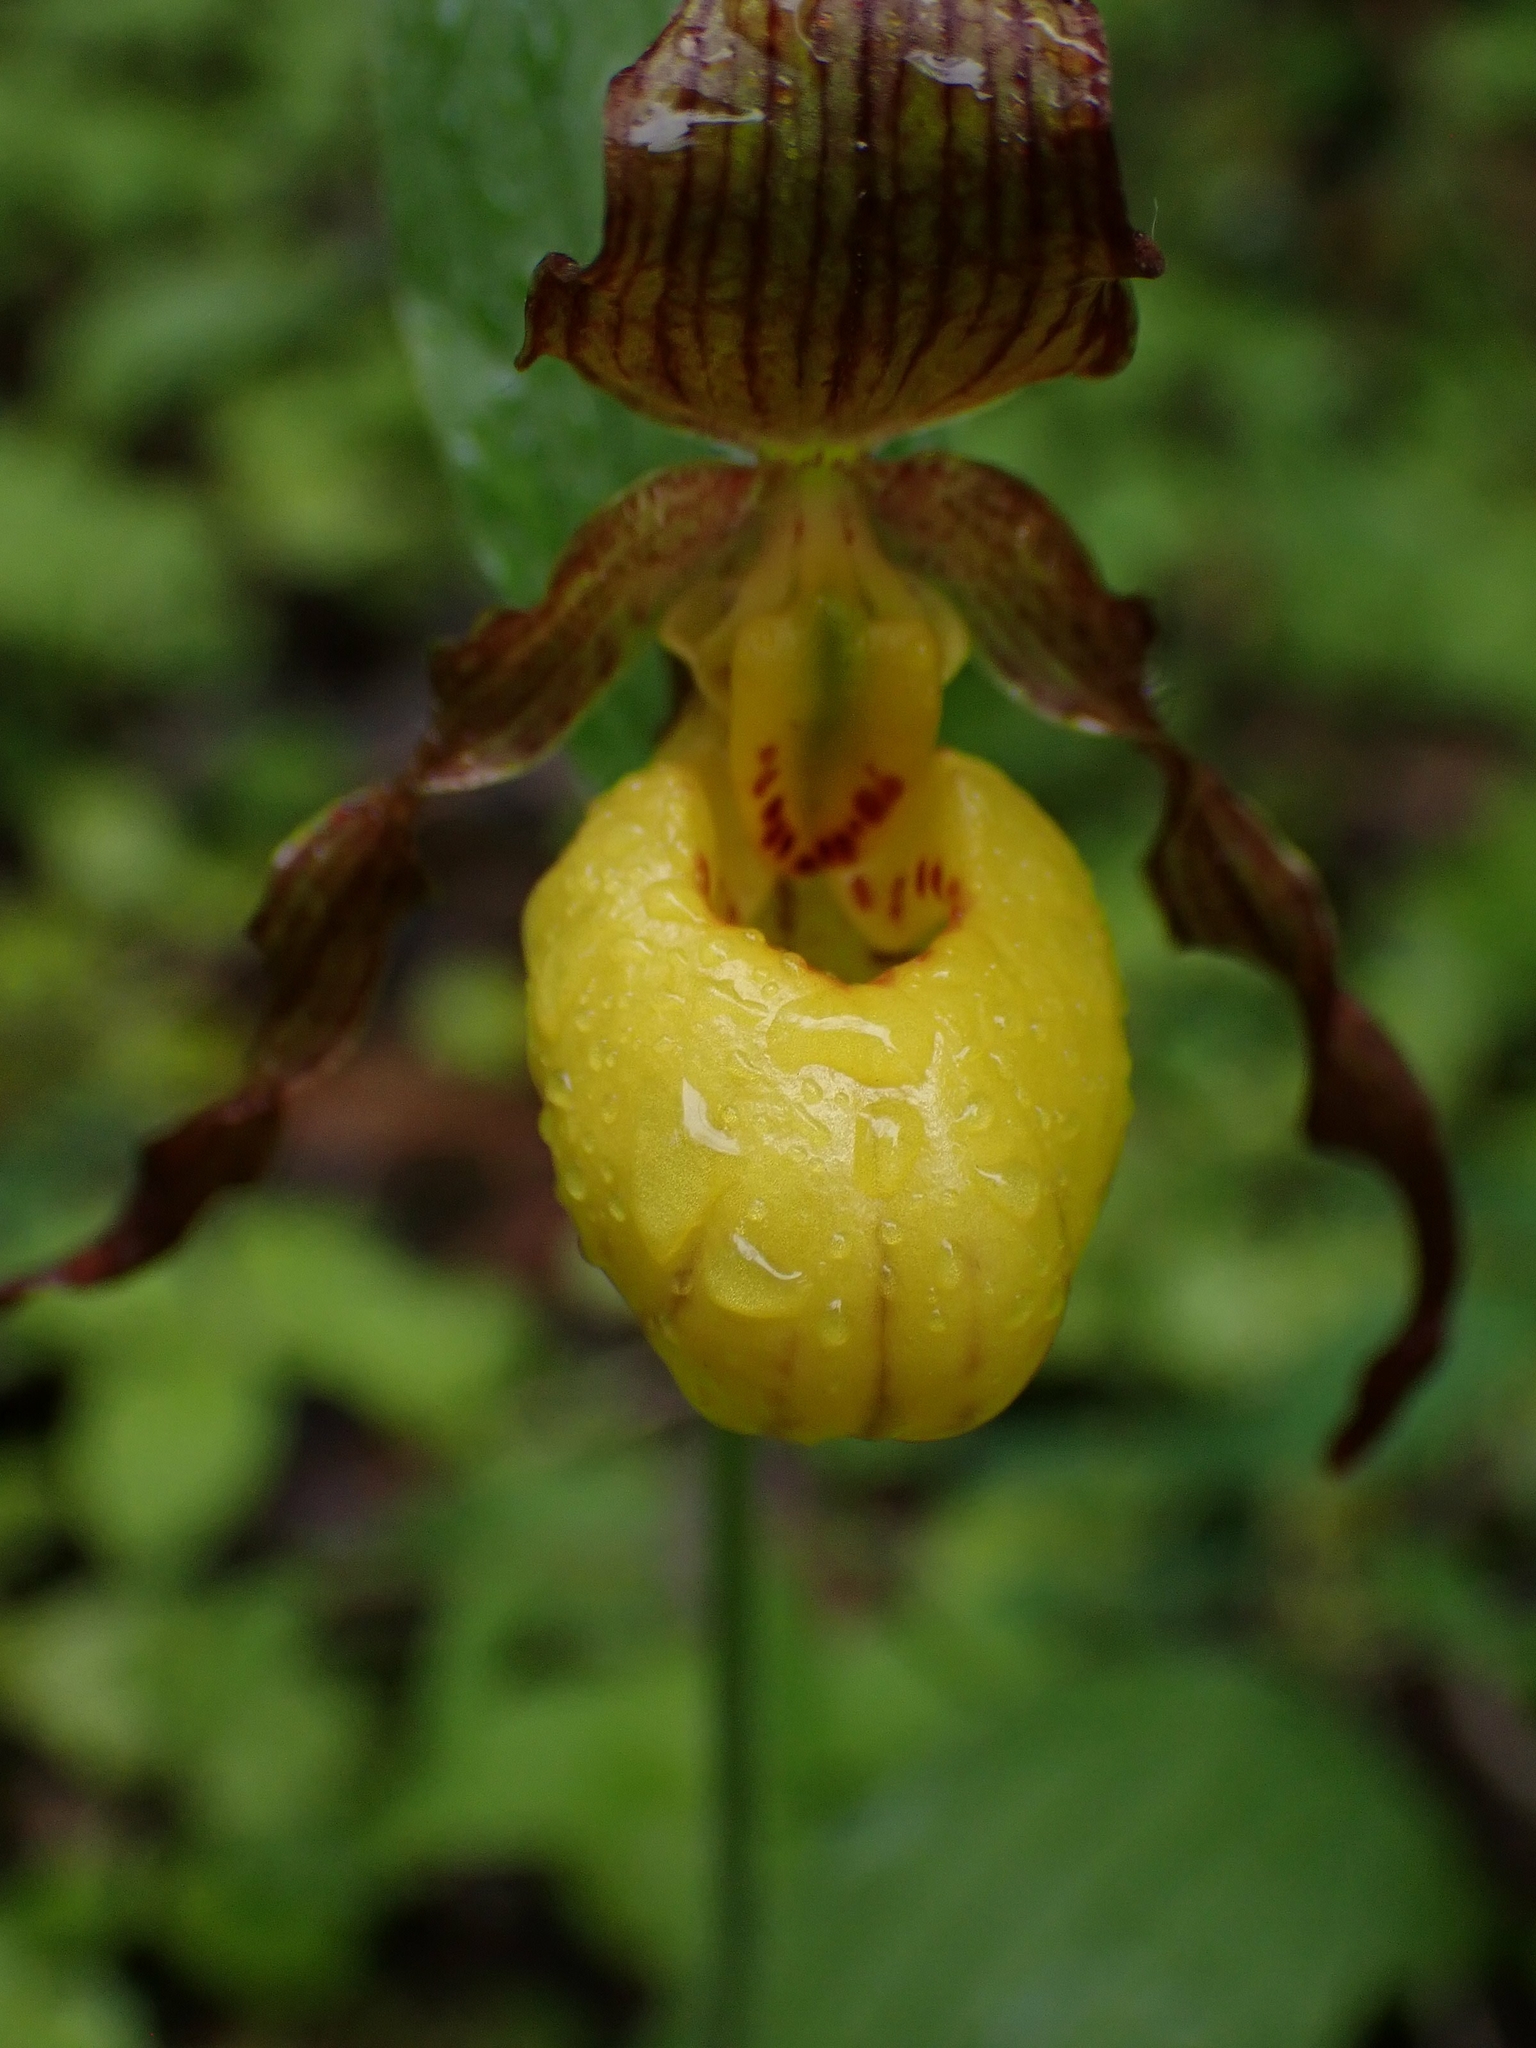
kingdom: Plantae
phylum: Tracheophyta
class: Liliopsida
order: Asparagales
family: Orchidaceae
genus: Cypripedium
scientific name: Cypripedium parviflorum
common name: American yellow lady's-slipper
